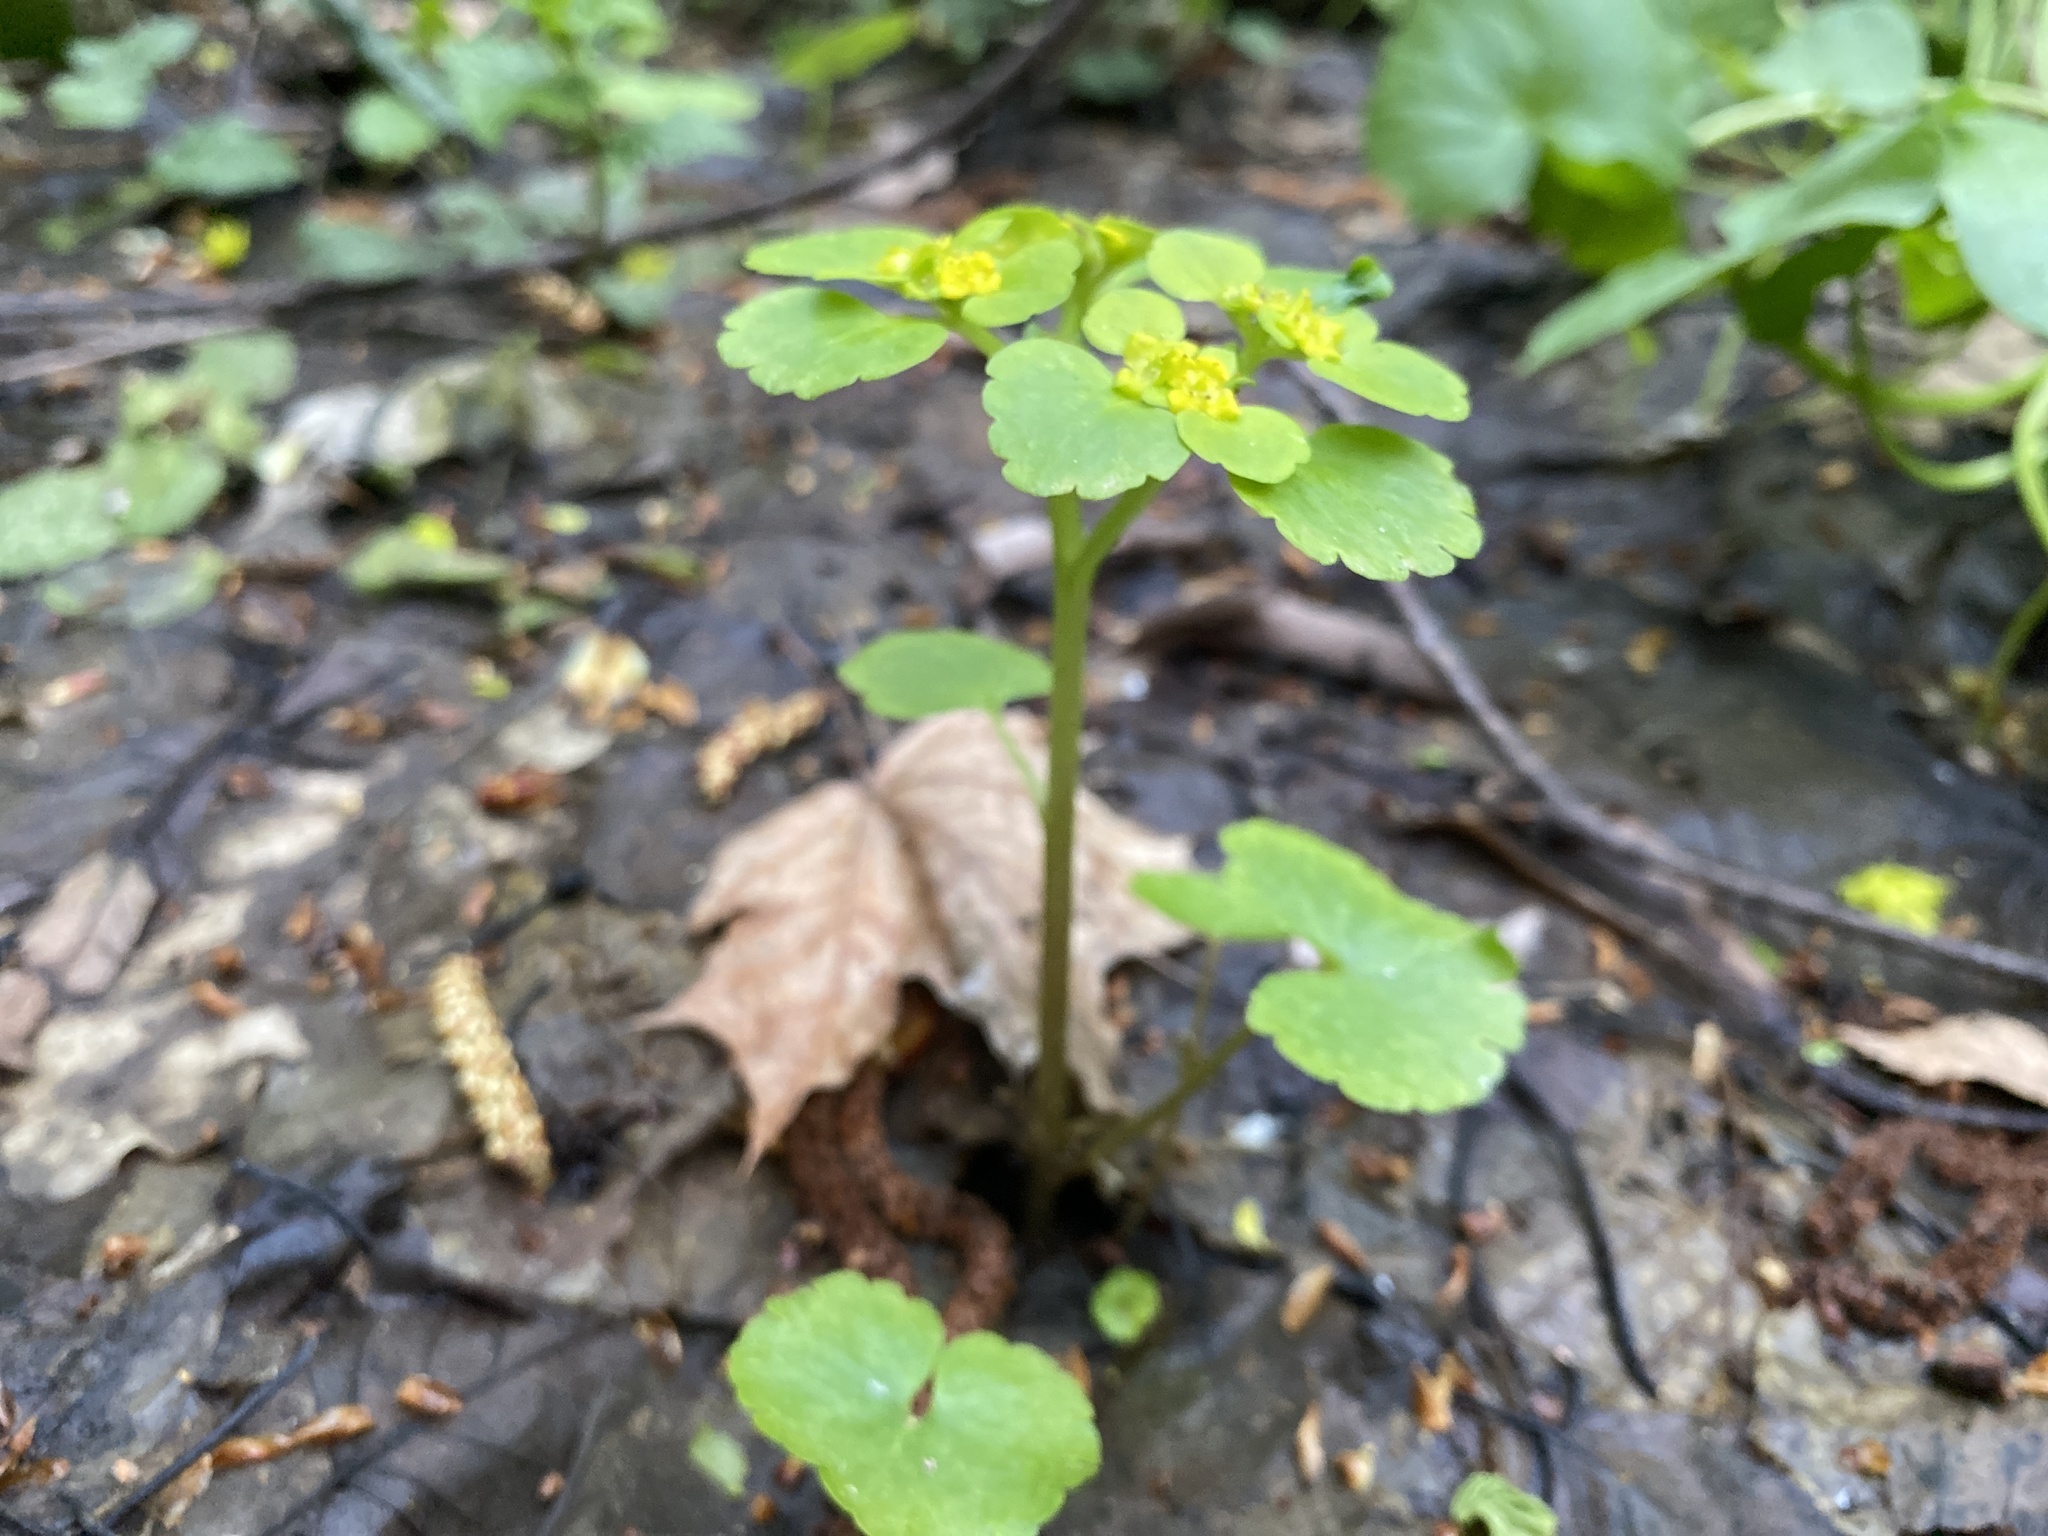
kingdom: Plantae
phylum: Tracheophyta
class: Magnoliopsida
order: Saxifragales
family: Saxifragaceae
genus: Chrysosplenium
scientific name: Chrysosplenium alternifolium
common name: Alternate-leaved golden-saxifrage
